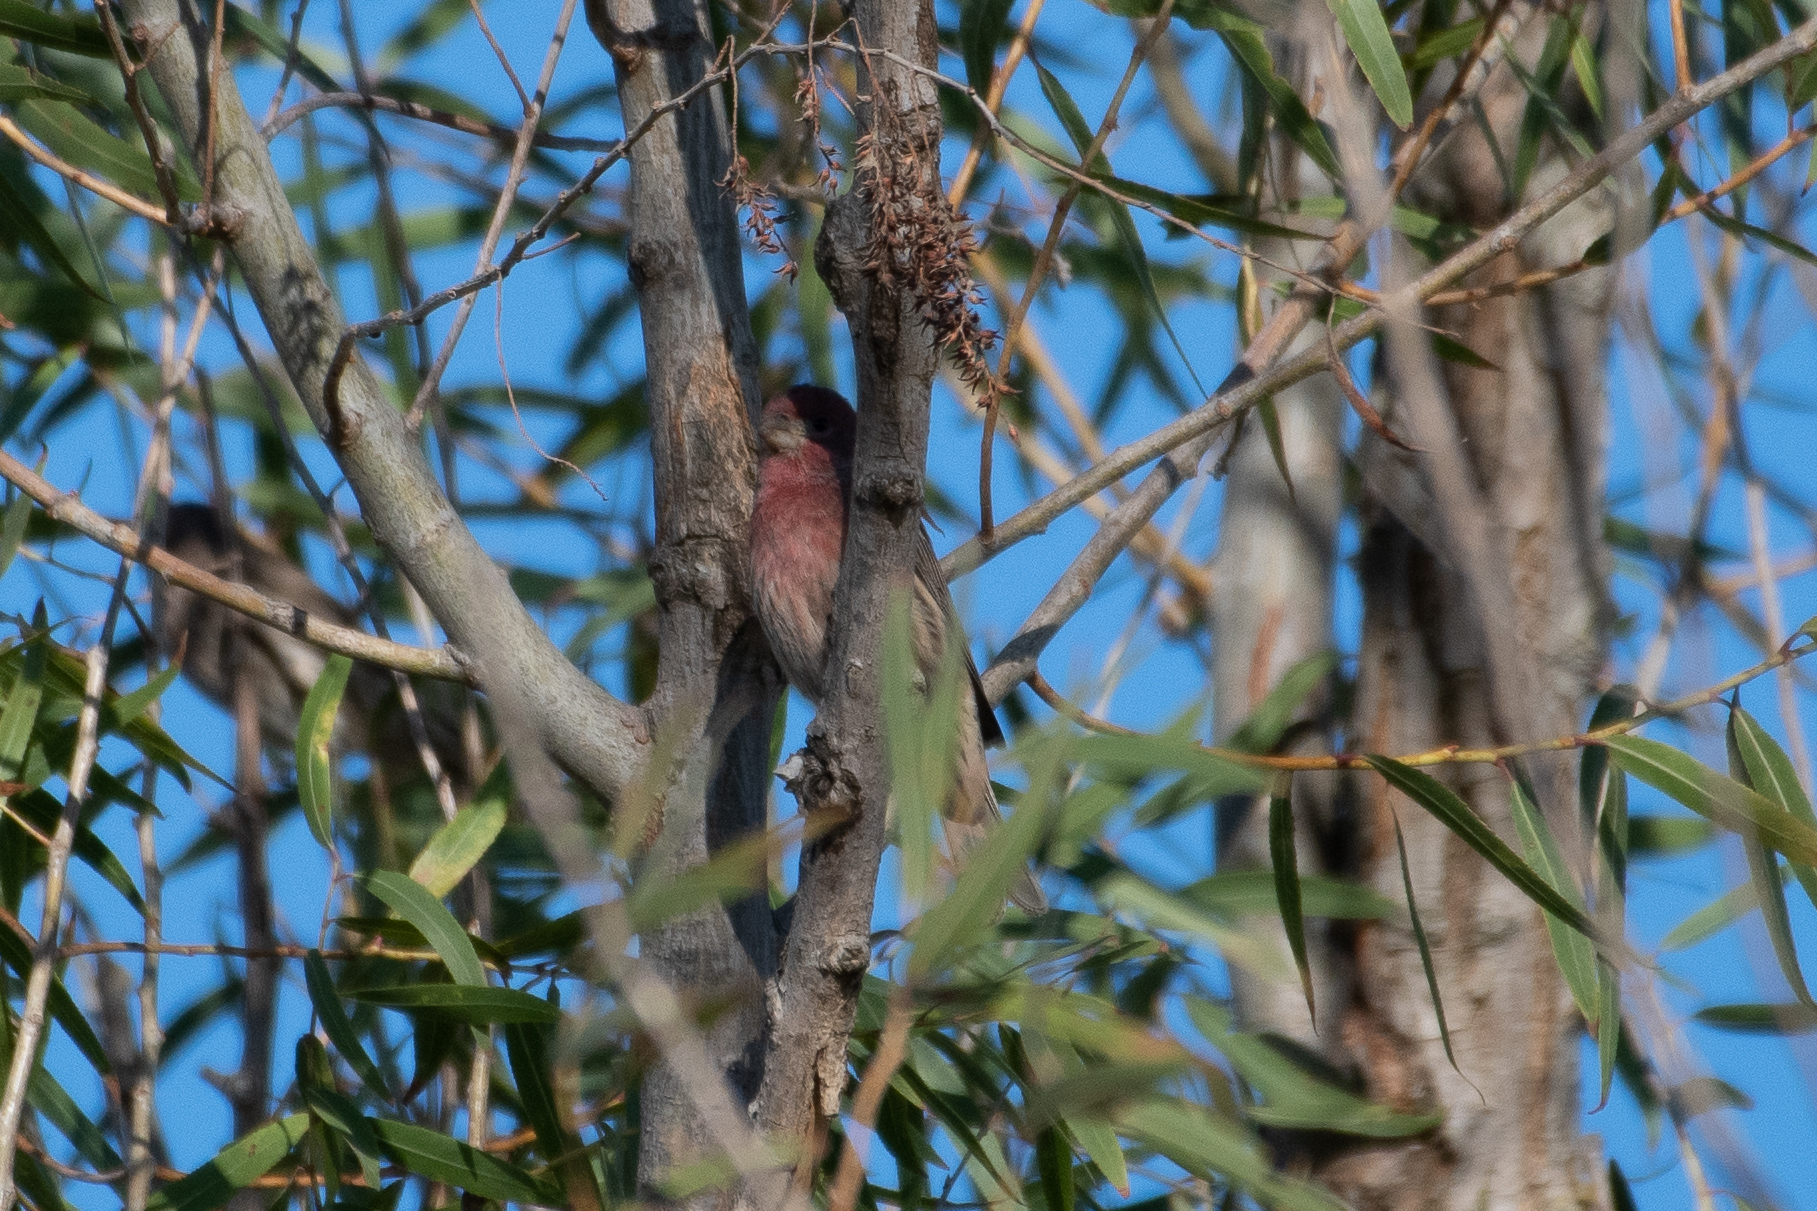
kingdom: Animalia
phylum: Chordata
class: Aves
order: Passeriformes
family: Fringillidae
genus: Haemorhous
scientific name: Haemorhous mexicanus
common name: House finch
